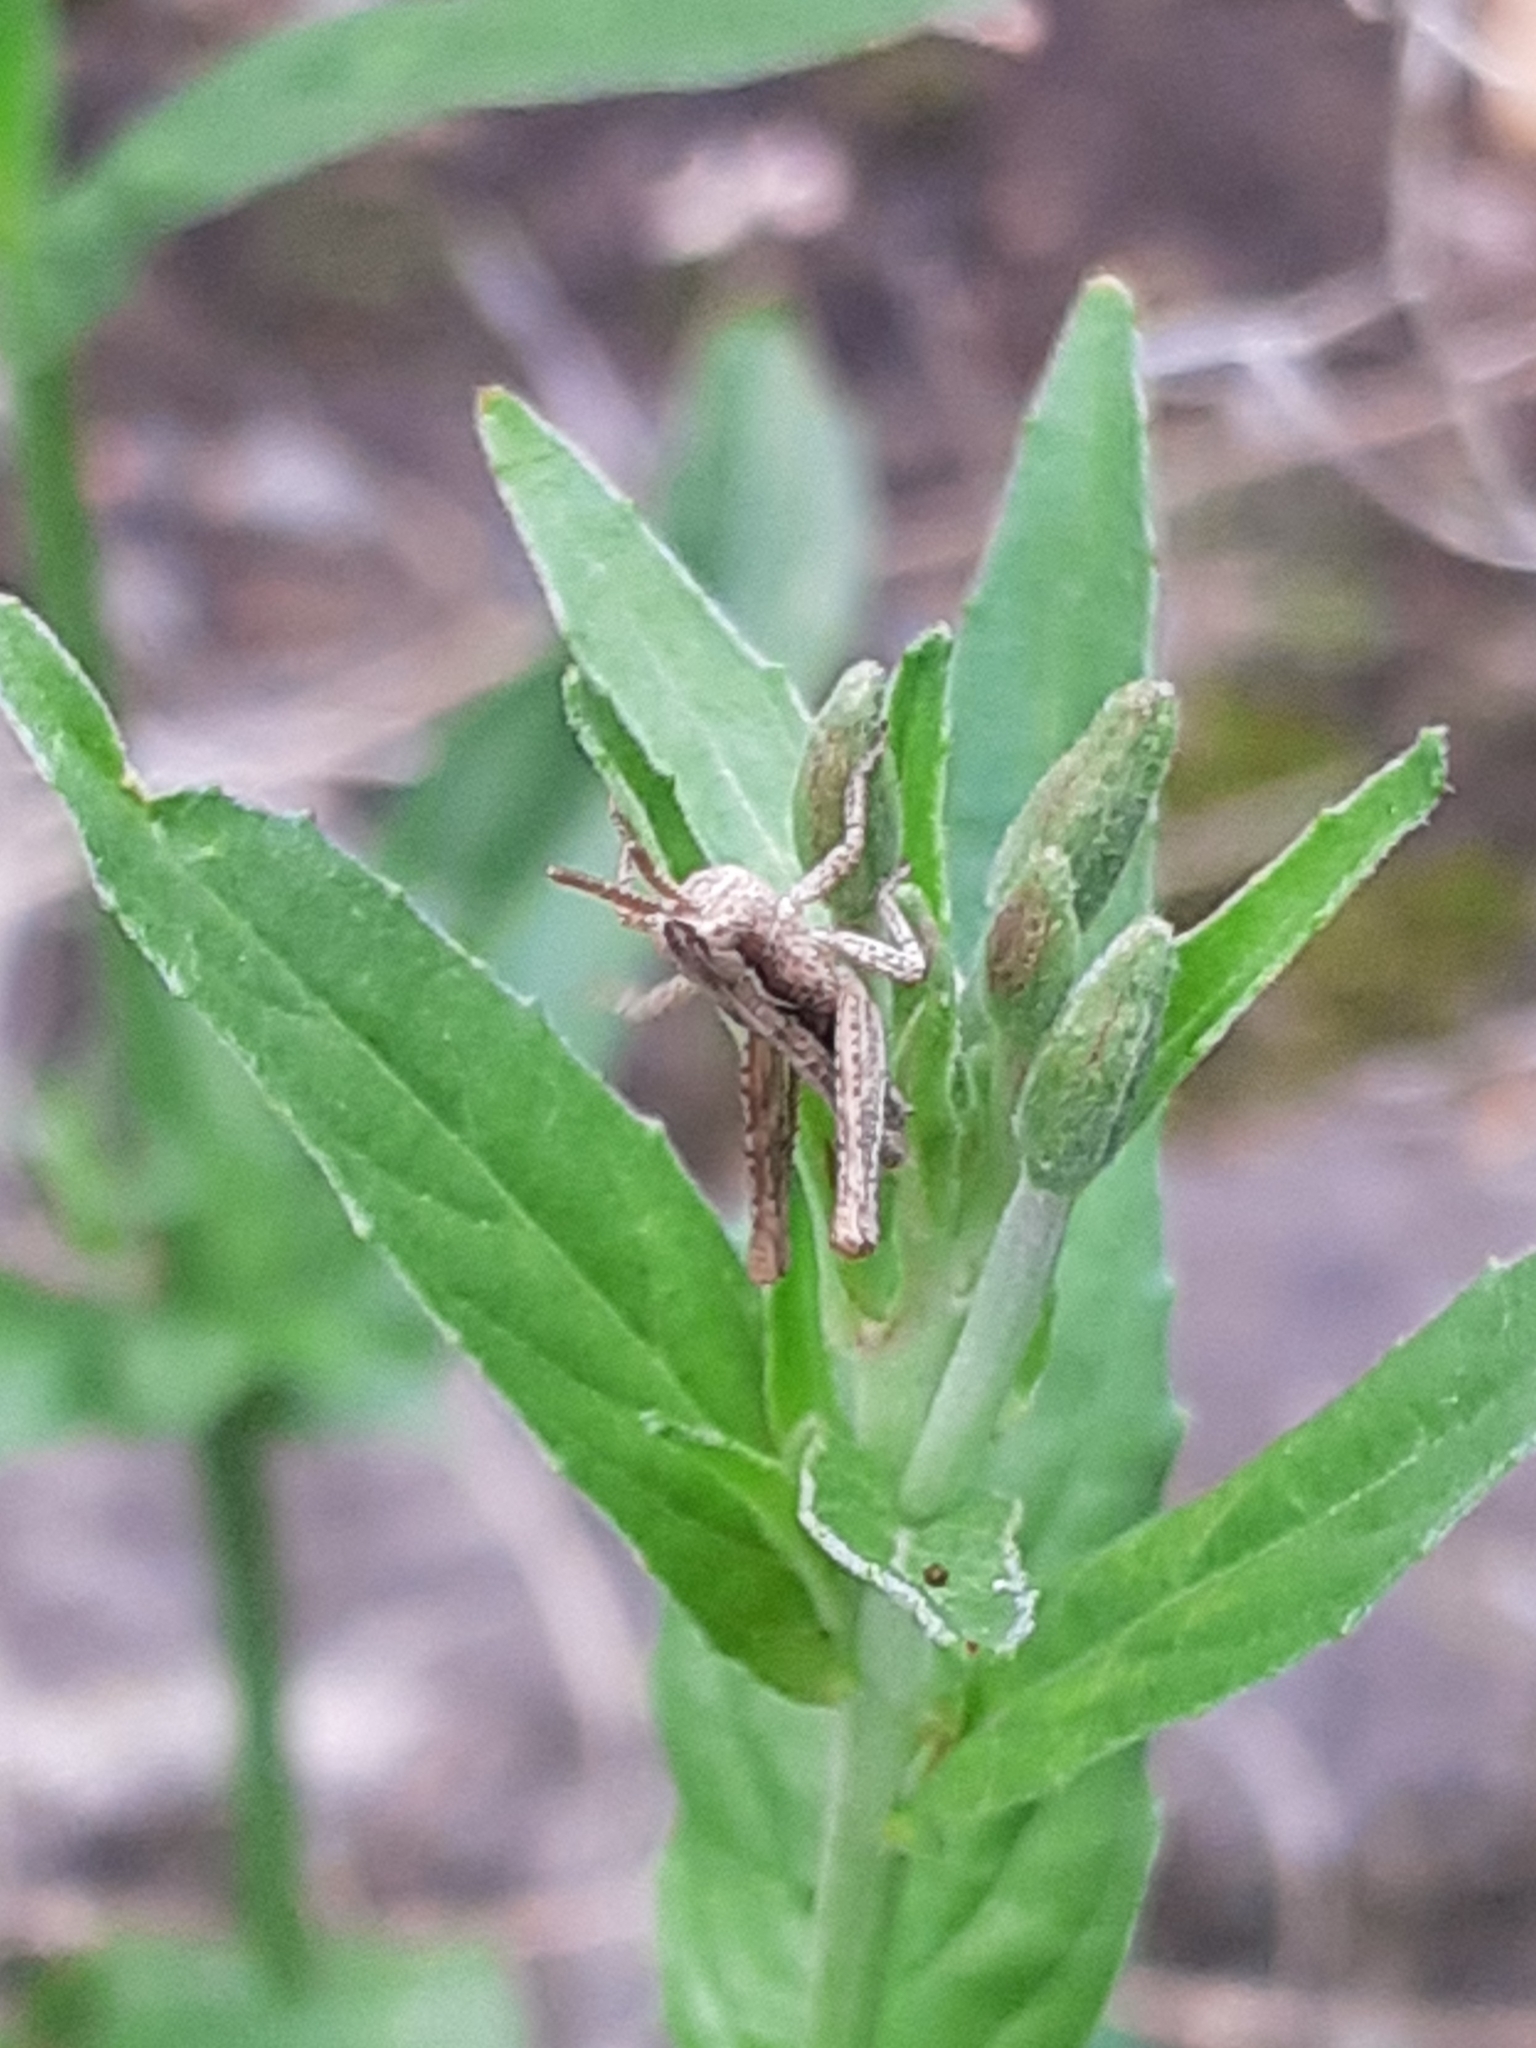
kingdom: Animalia
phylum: Arthropoda
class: Insecta
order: Orthoptera
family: Acrididae
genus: Chorthippus
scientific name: Chorthippus brunneus
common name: Field grasshopper
